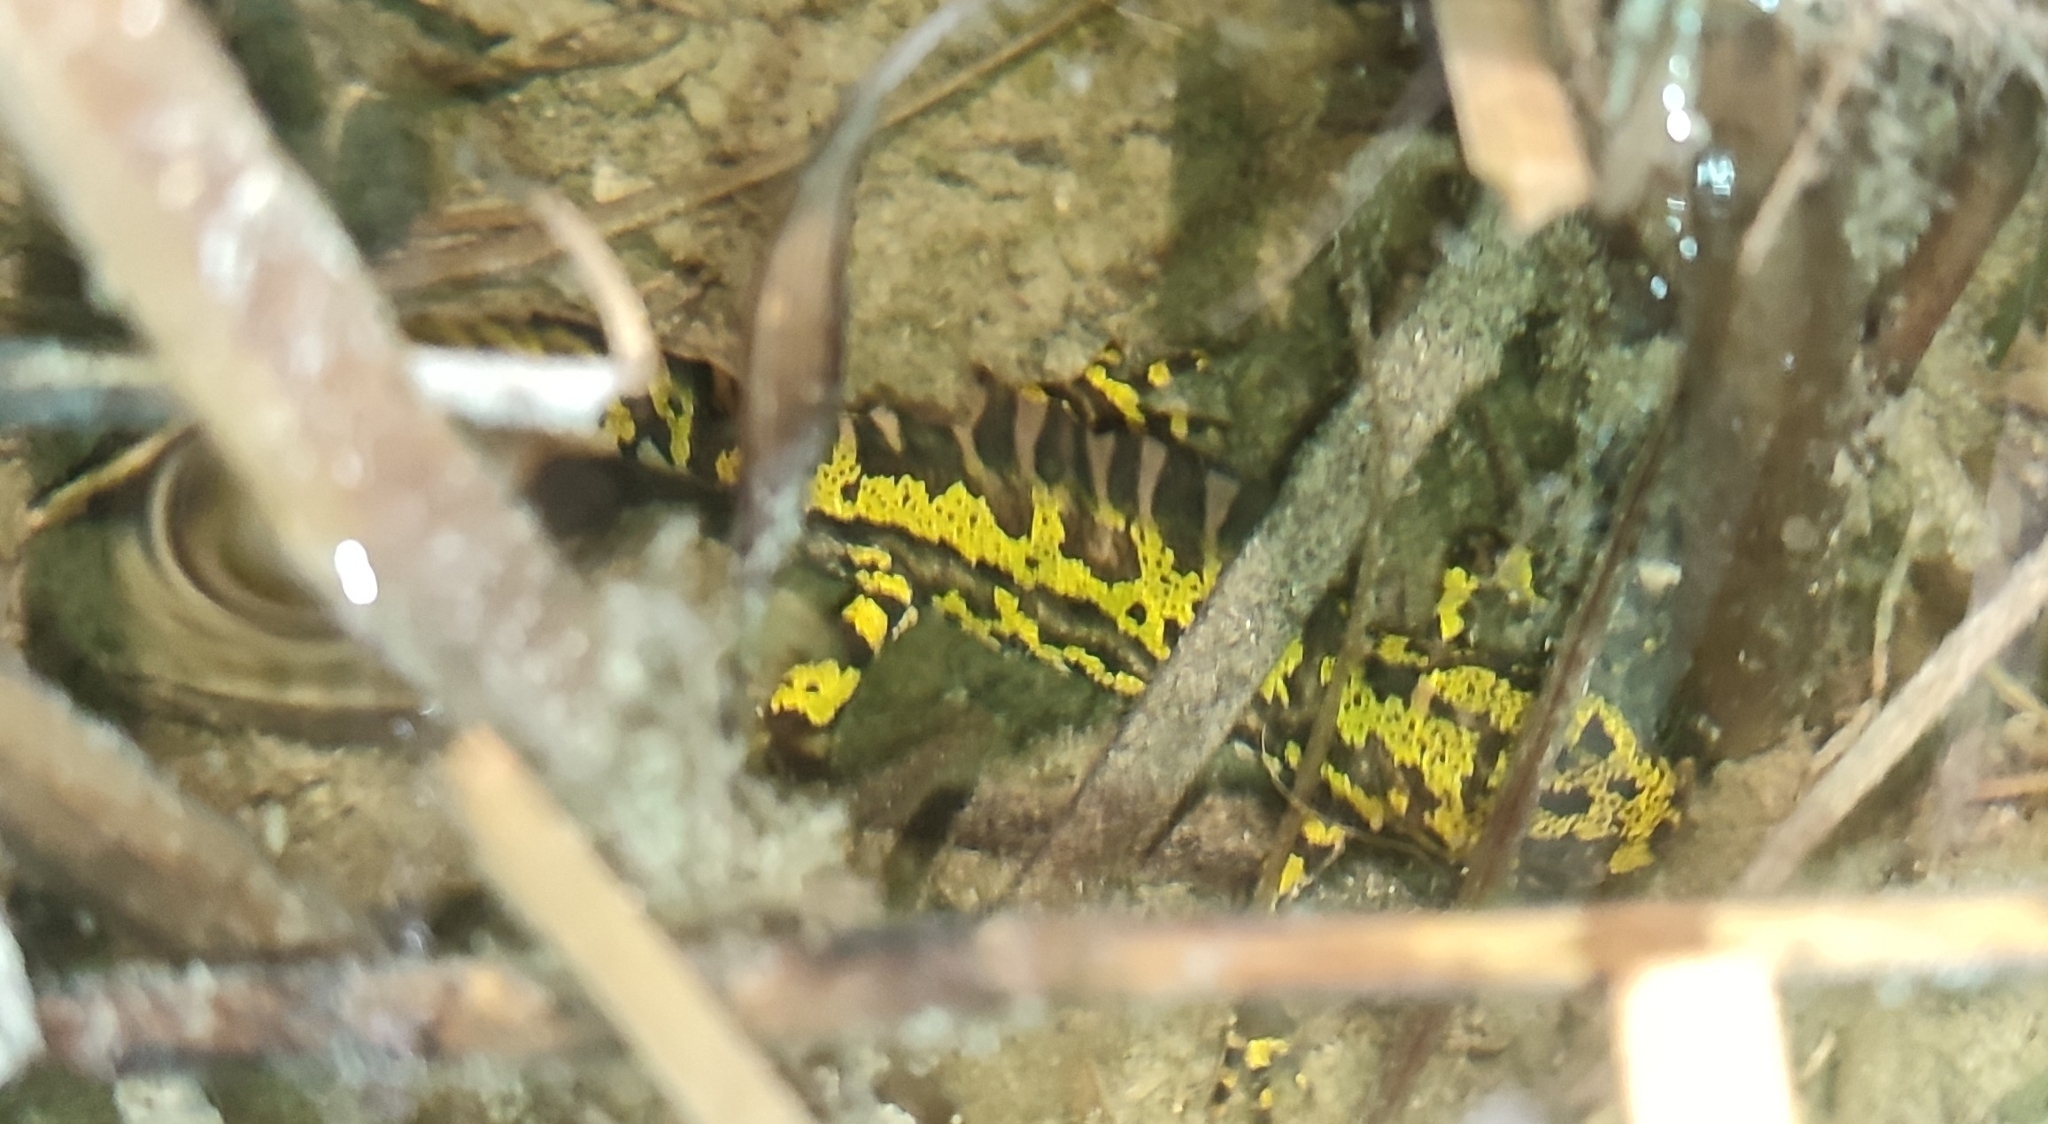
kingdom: Animalia
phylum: Chordata
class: Amphibia
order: Caudata
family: Salamandridae
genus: Triturus
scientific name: Triturus marmoratus
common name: Marbled newt
